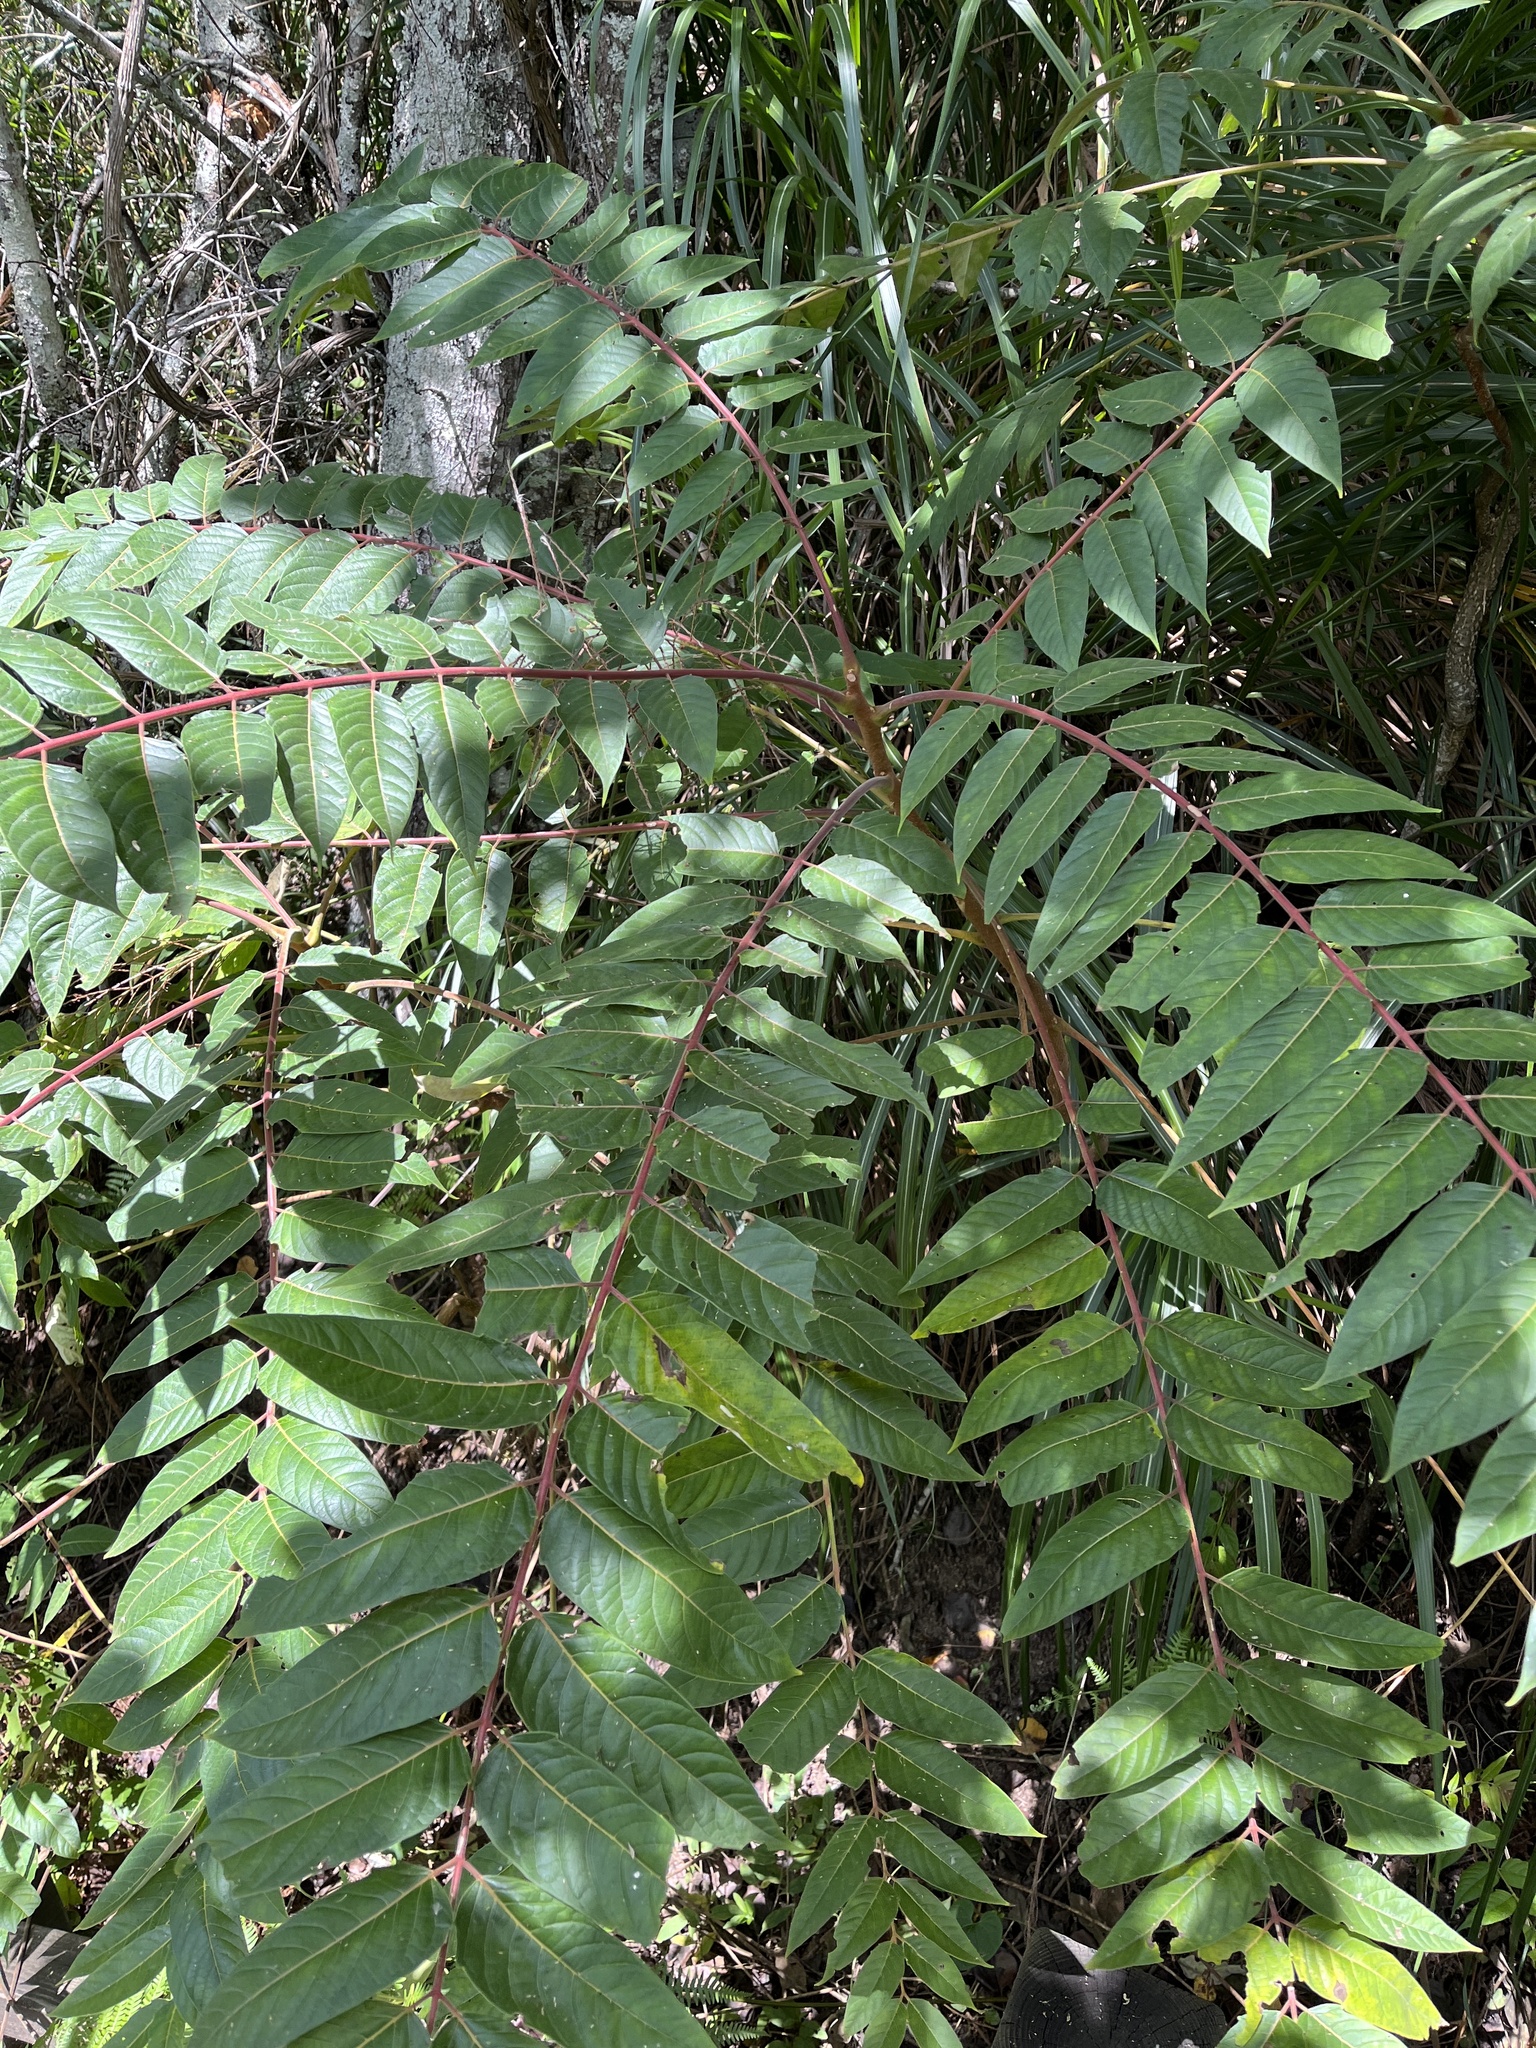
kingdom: Plantae
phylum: Tracheophyta
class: Magnoliopsida
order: Sapindales
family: Simaroubaceae
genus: Ailanthus
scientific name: Ailanthus altissima
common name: Tree-of-heaven
